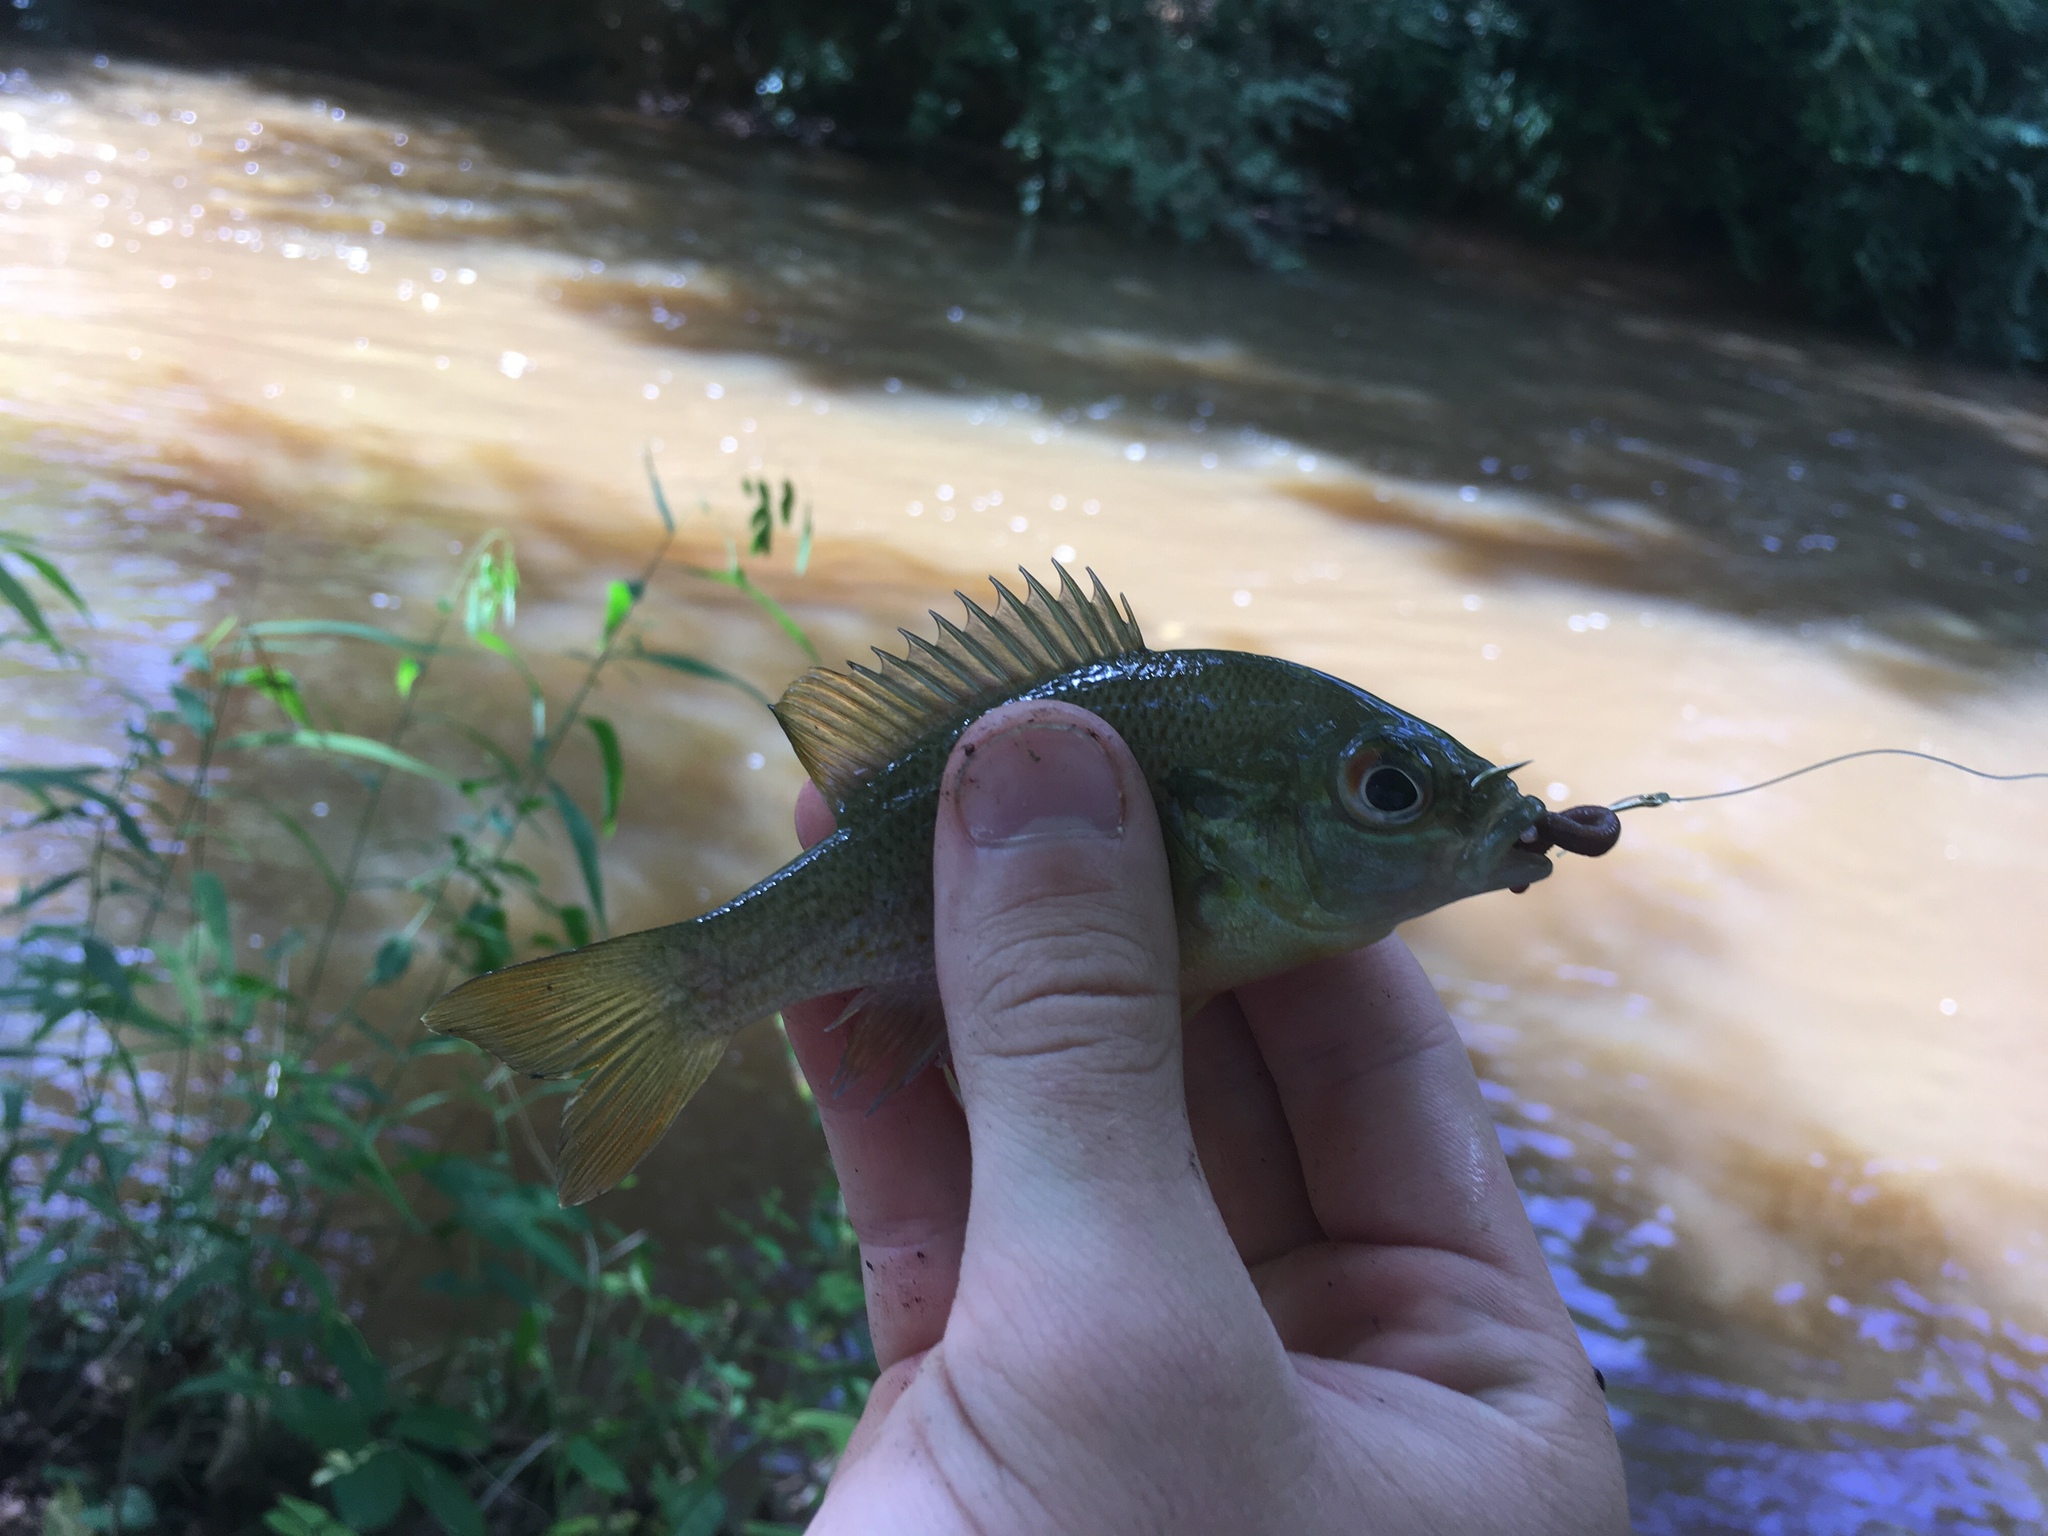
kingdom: Animalia
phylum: Chordata
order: Perciformes
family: Centrarchidae
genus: Lepomis
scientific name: Lepomis auritus
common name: Redbreast sunfish
